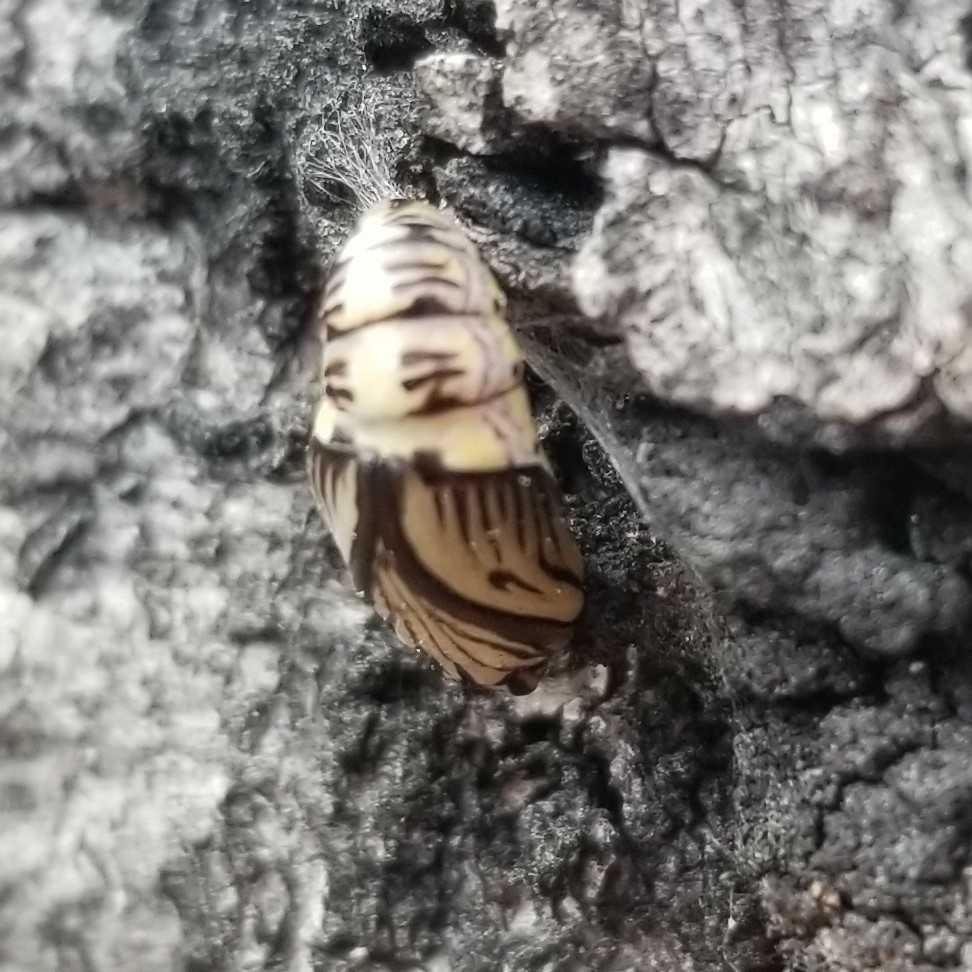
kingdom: Animalia
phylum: Arthropoda
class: Insecta
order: Lepidoptera
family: Notodontidae
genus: Phryganidia
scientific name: Phryganidia californica
